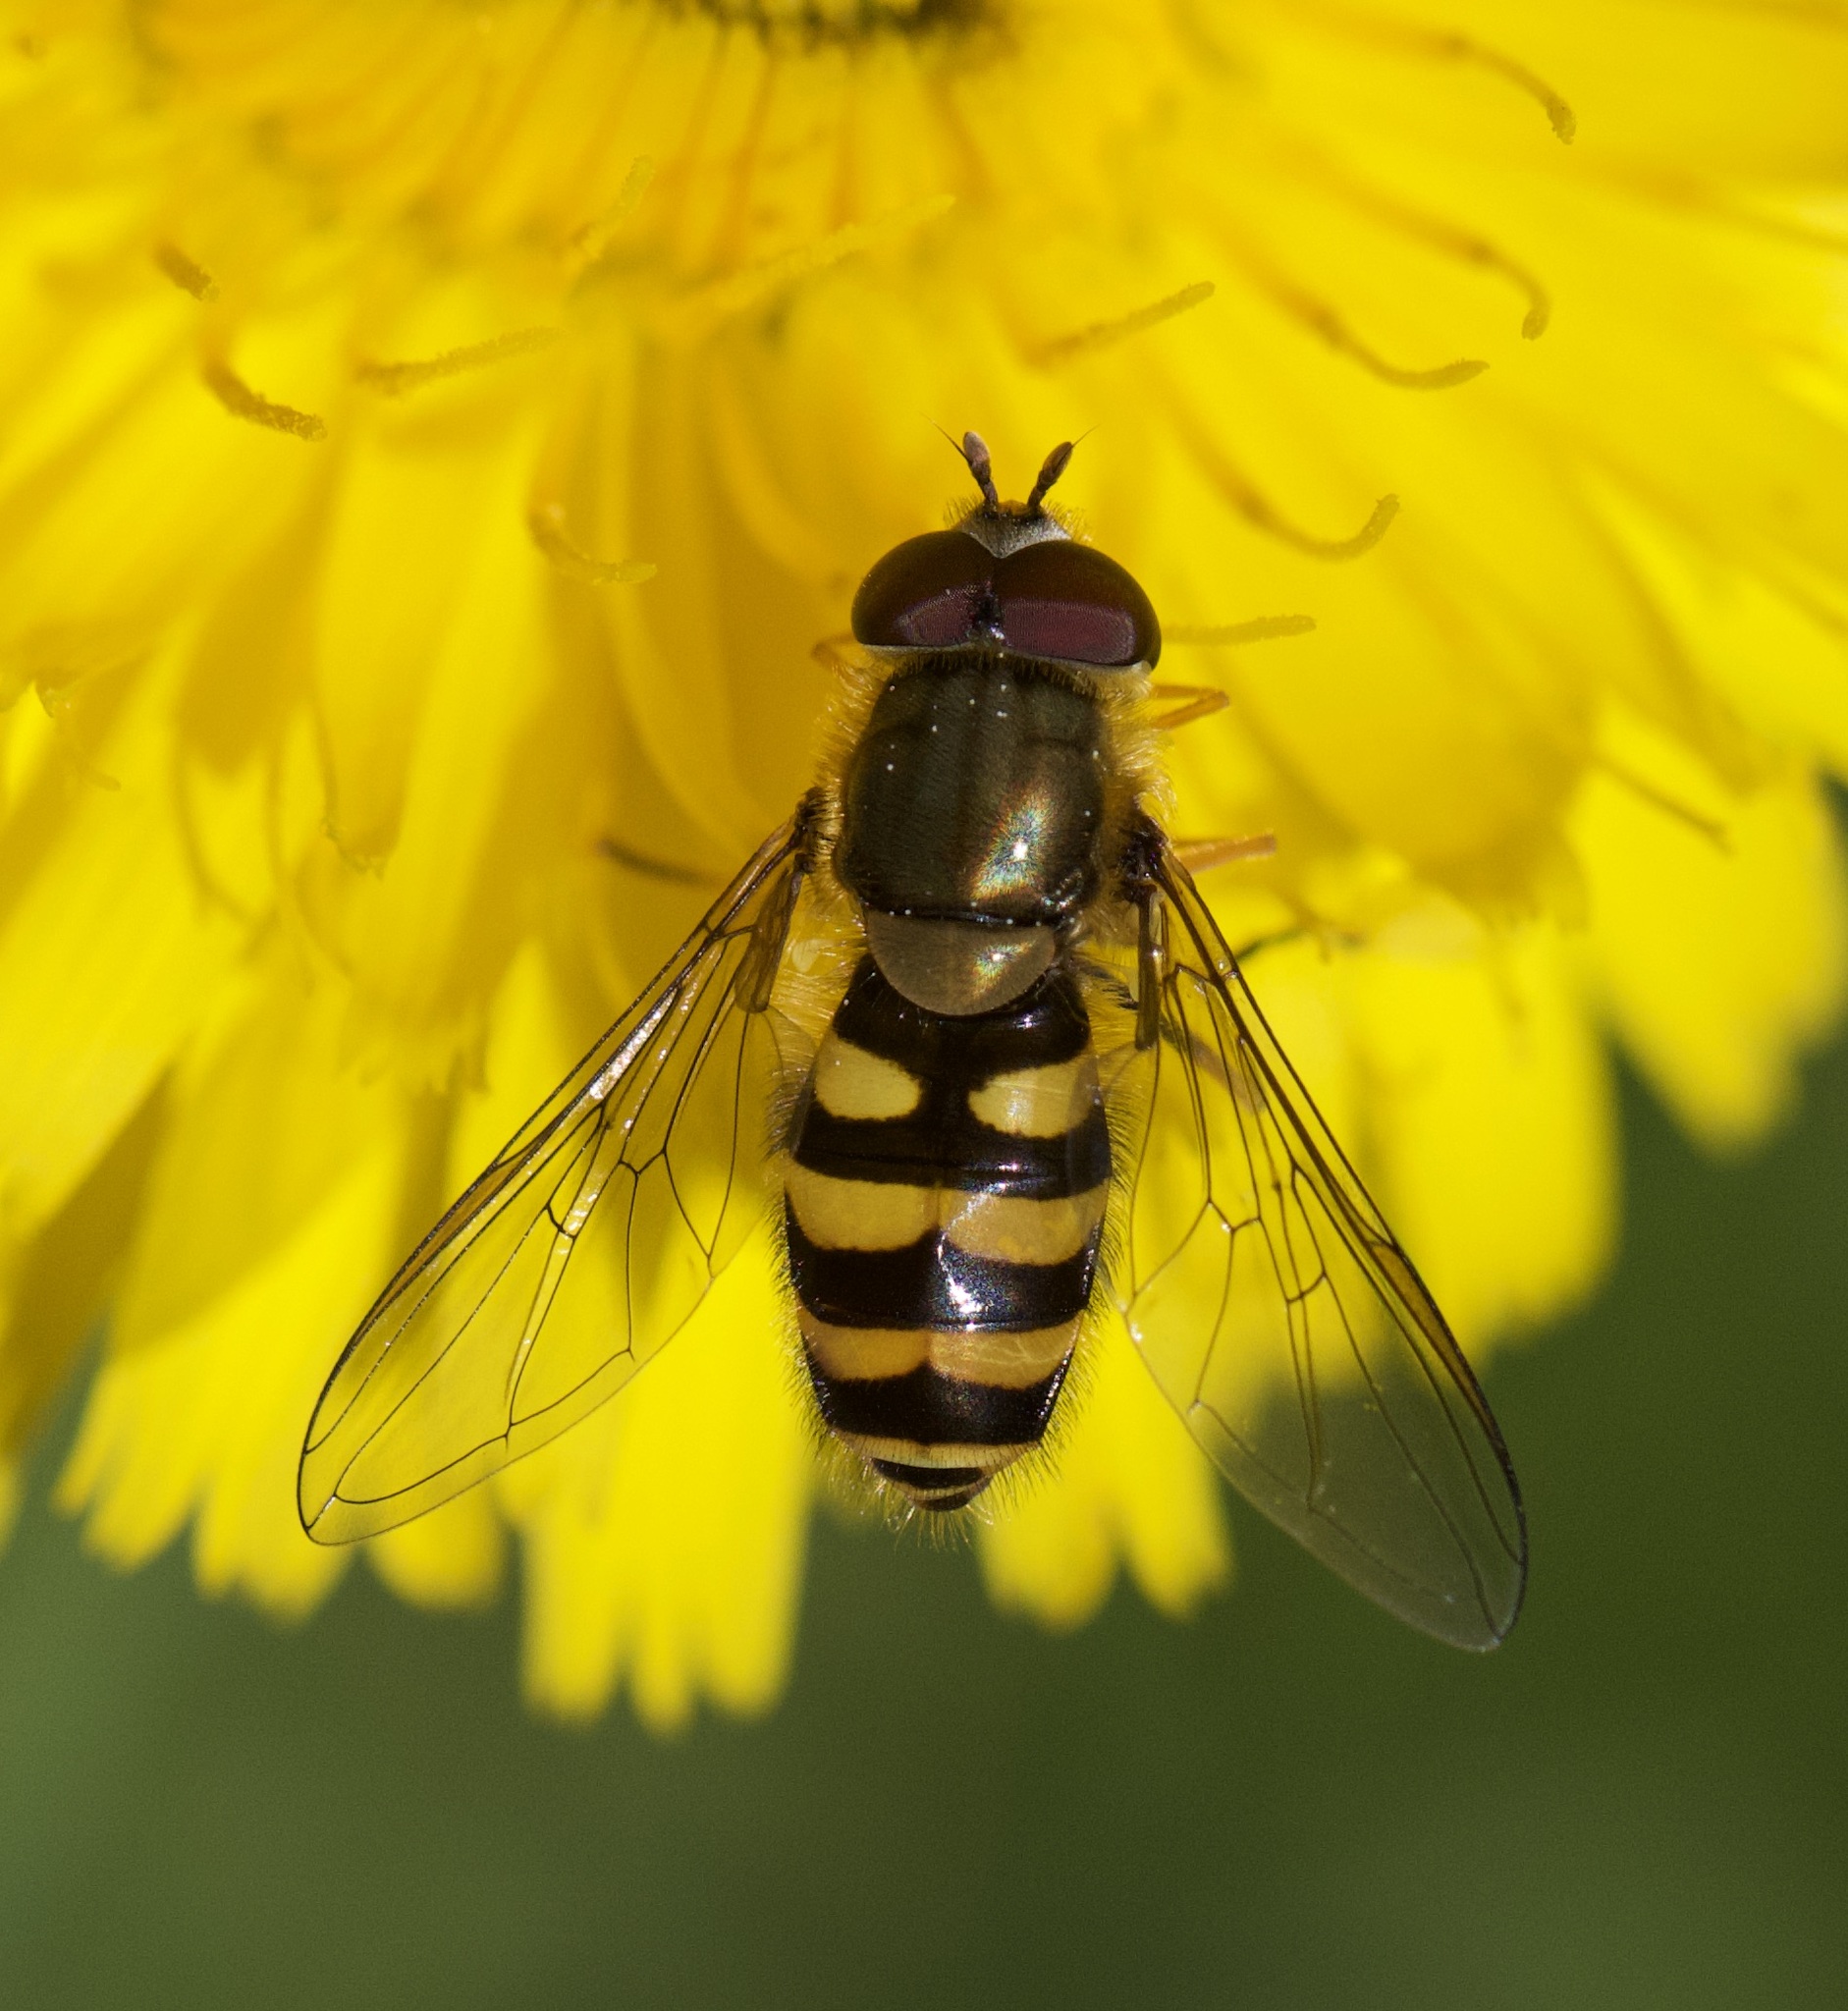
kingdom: Animalia
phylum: Arthropoda
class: Insecta
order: Diptera
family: Syrphidae
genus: Syrphus
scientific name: Syrphus
